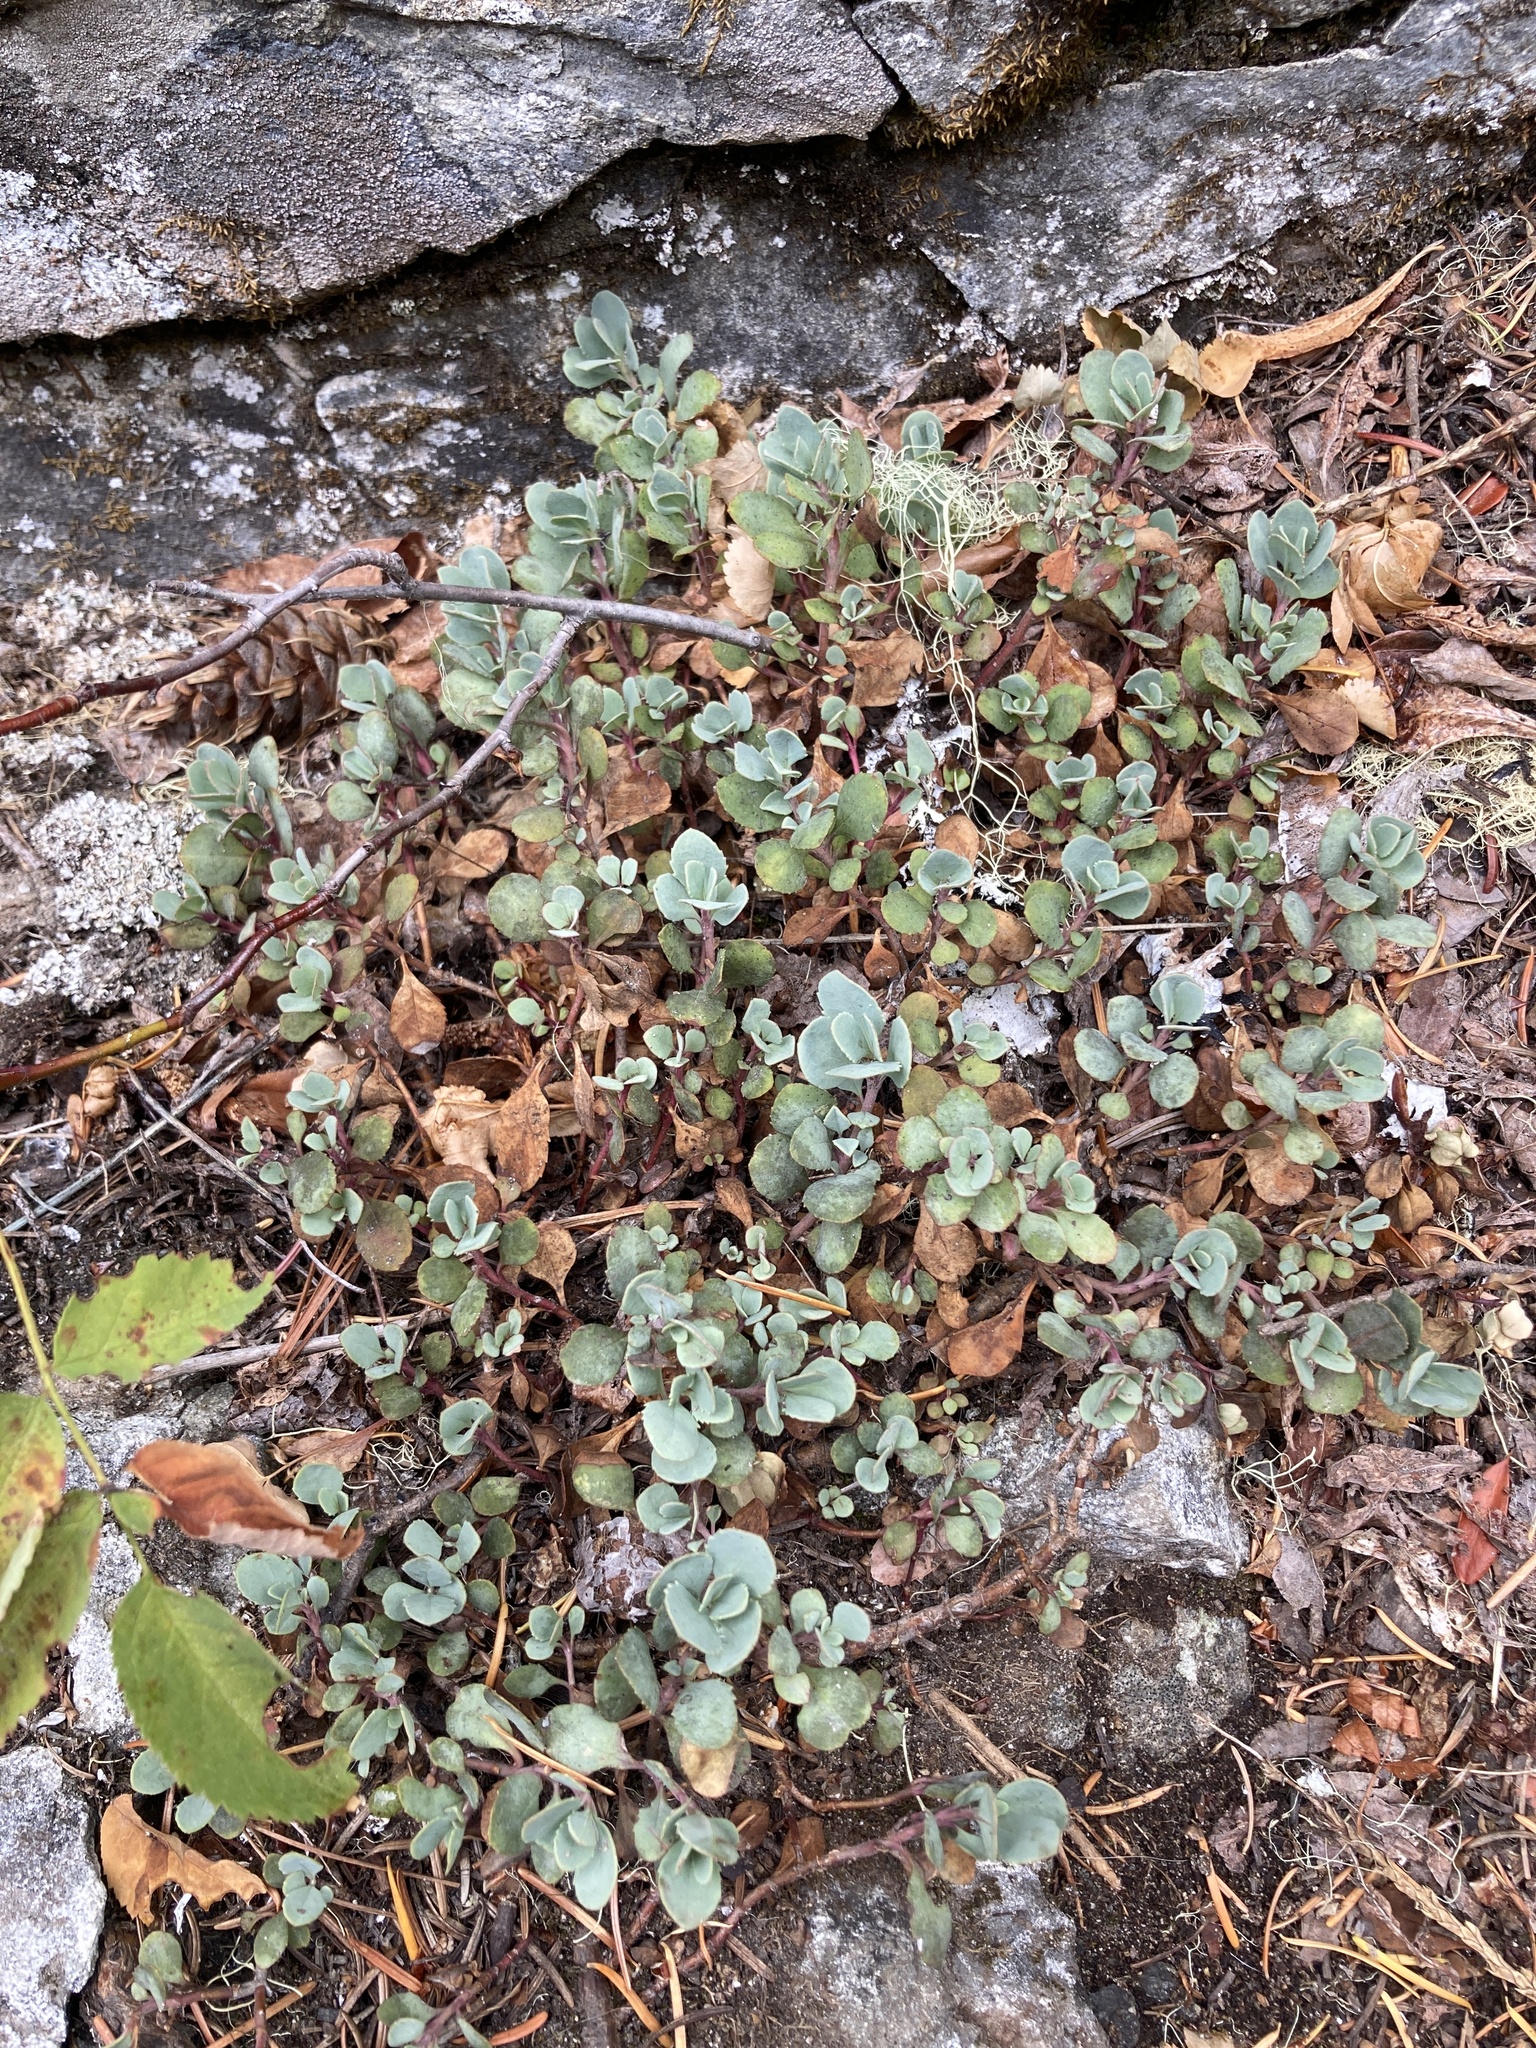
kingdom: Plantae
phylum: Tracheophyta
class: Magnoliopsida
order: Lamiales
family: Plantaginaceae
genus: Penstemon
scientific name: Penstemon rupicola
